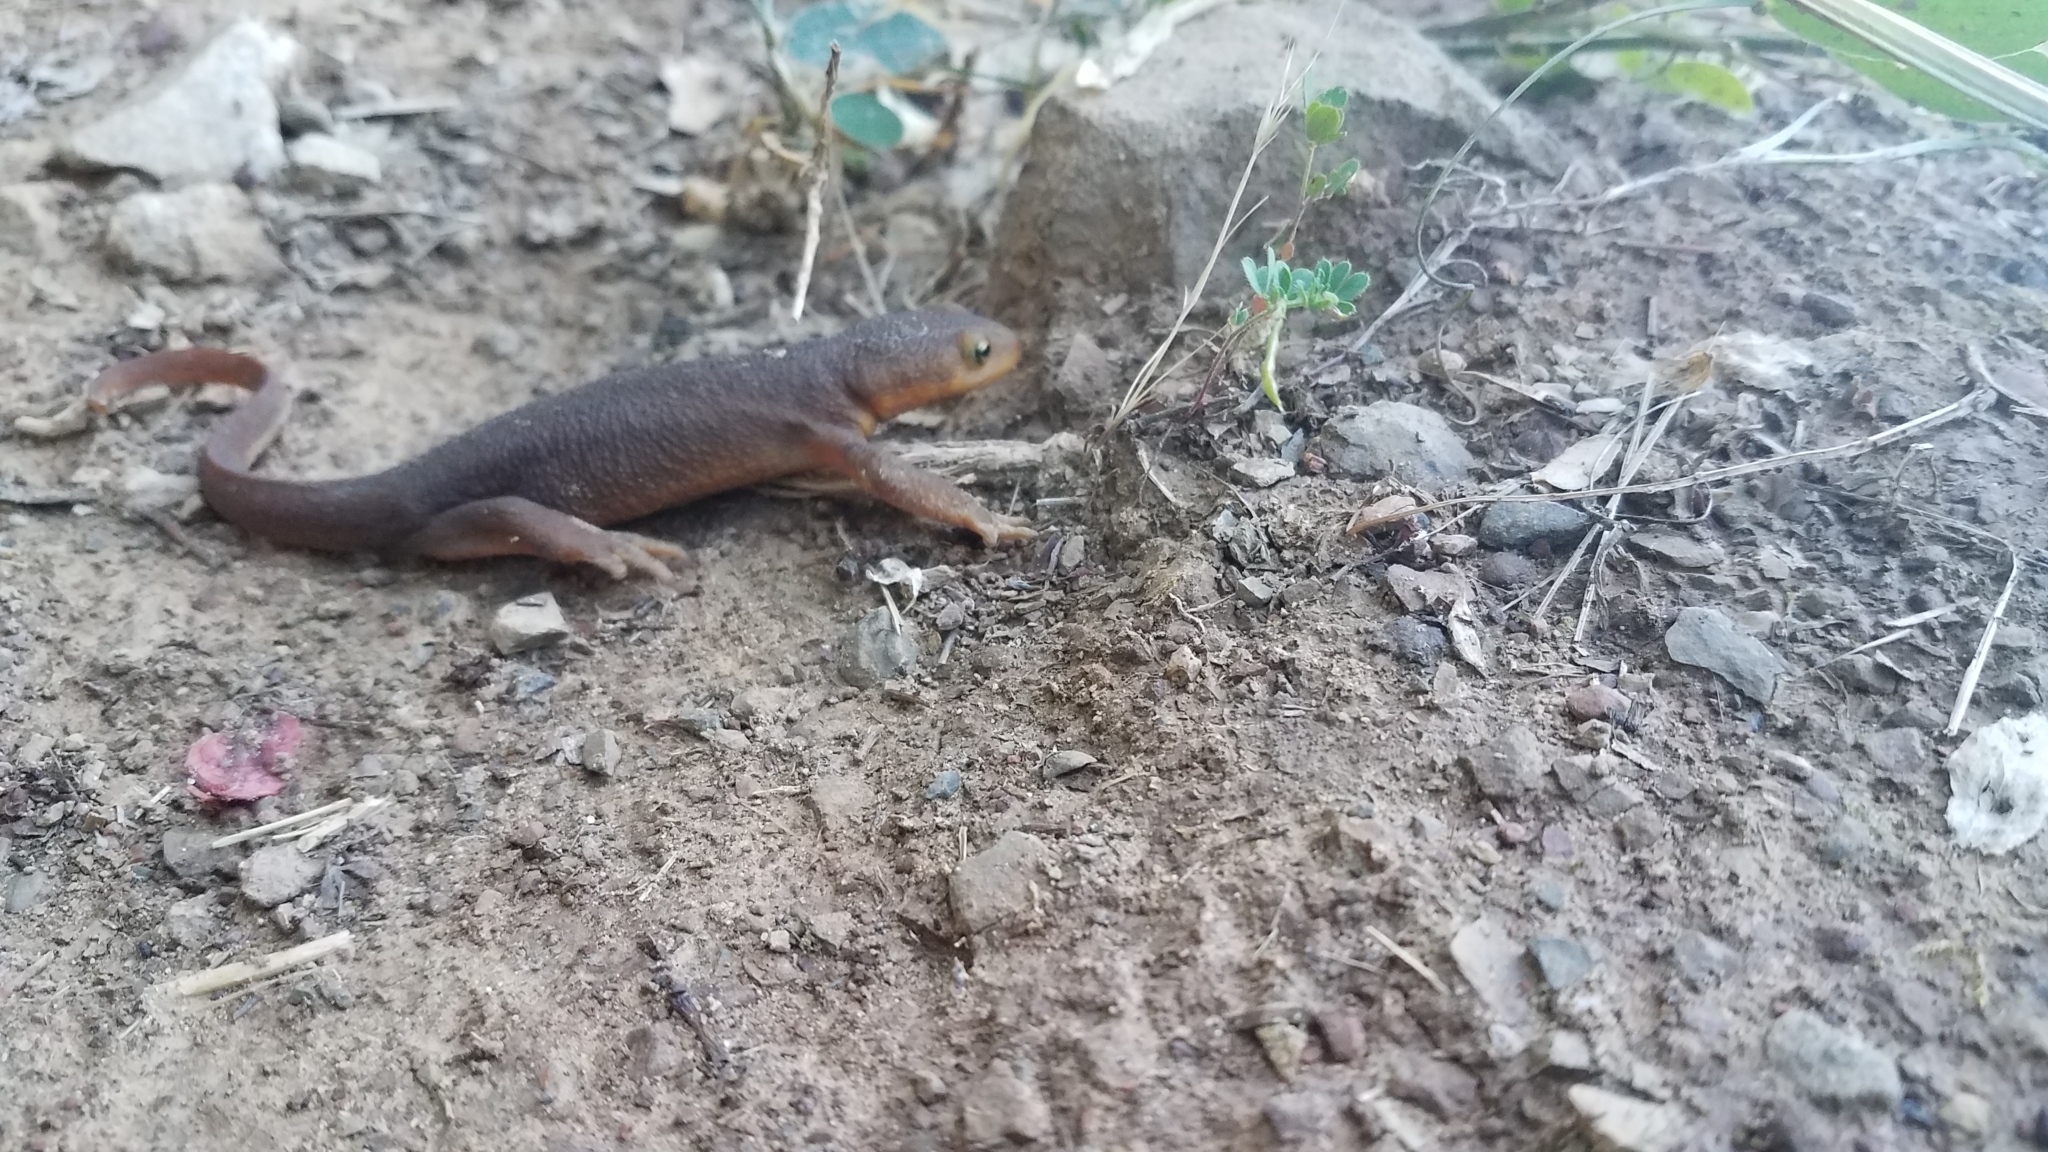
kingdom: Animalia
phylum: Chordata
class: Amphibia
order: Caudata
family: Salamandridae
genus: Taricha
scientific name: Taricha torosa
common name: California newt
